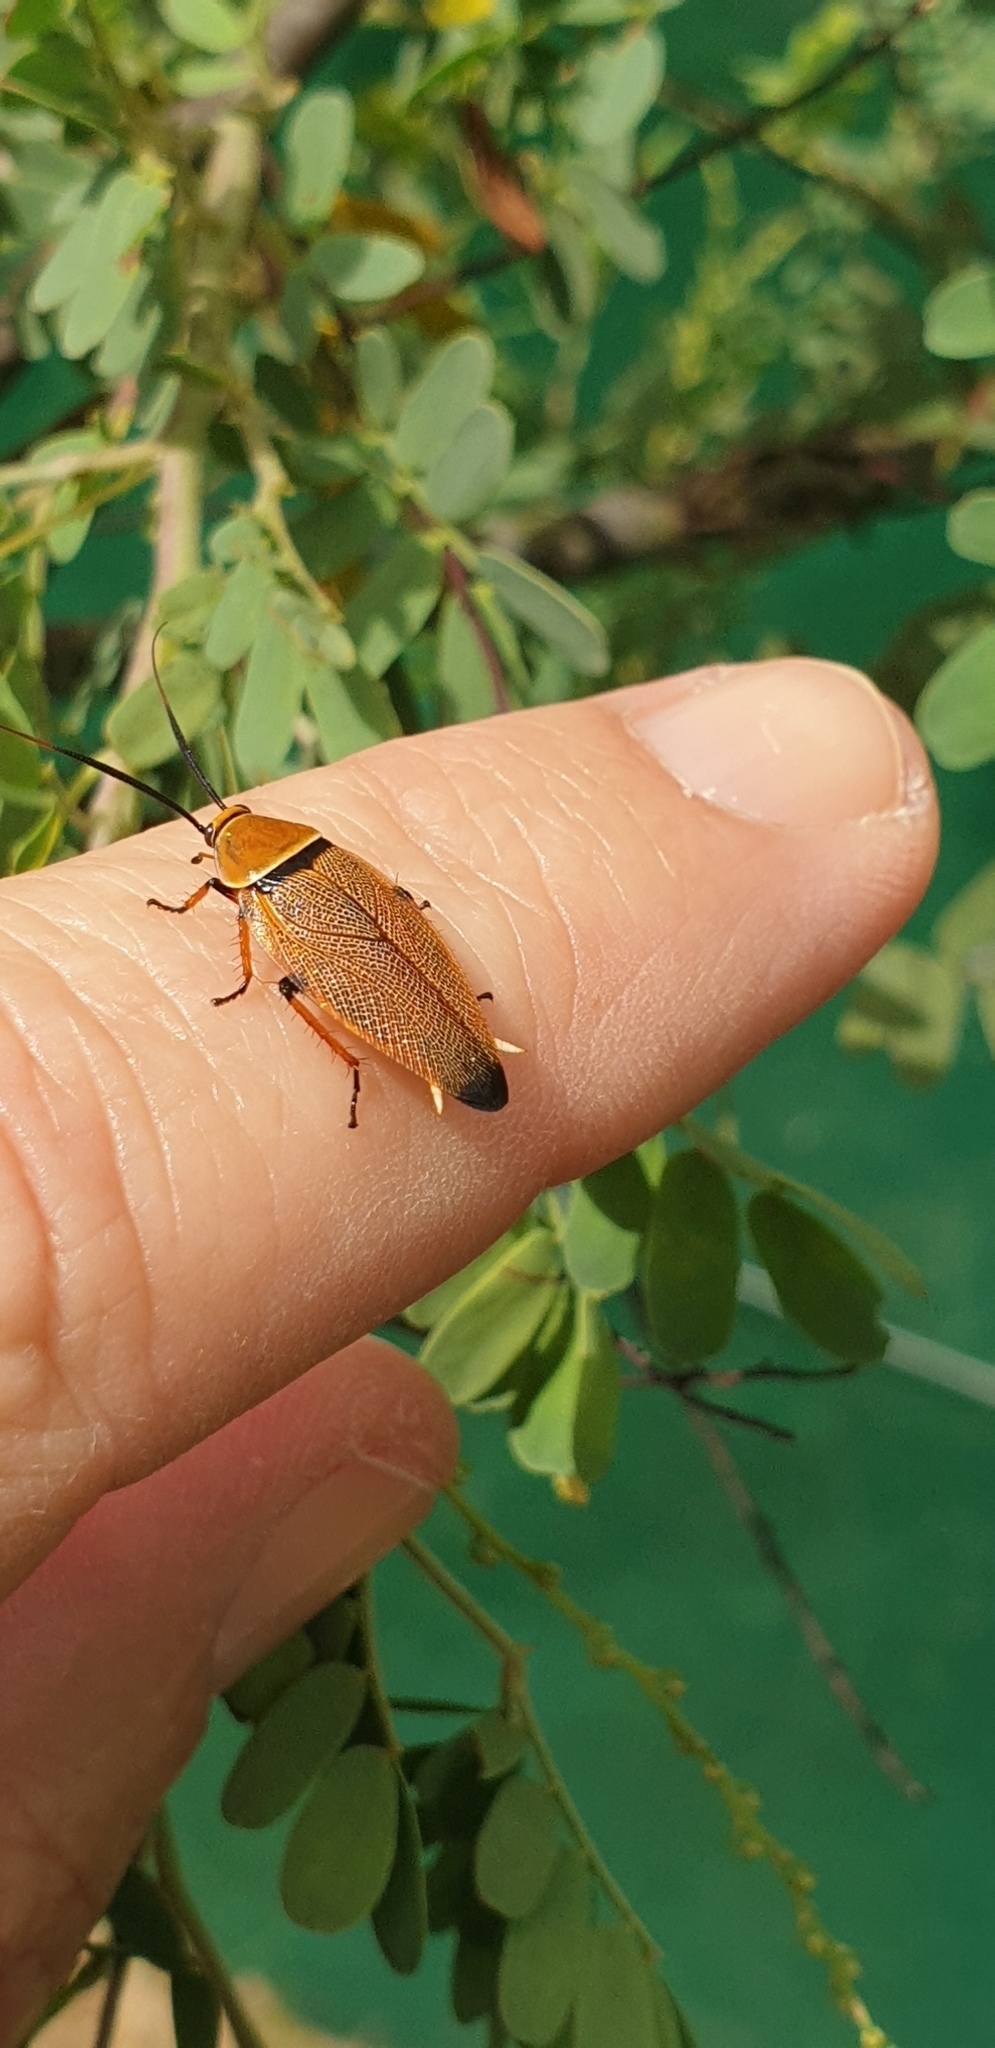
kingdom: Animalia
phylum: Arthropoda
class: Insecta
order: Blattodea
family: Ectobiidae
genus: Ellipsidion
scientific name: Ellipsidion humerale
